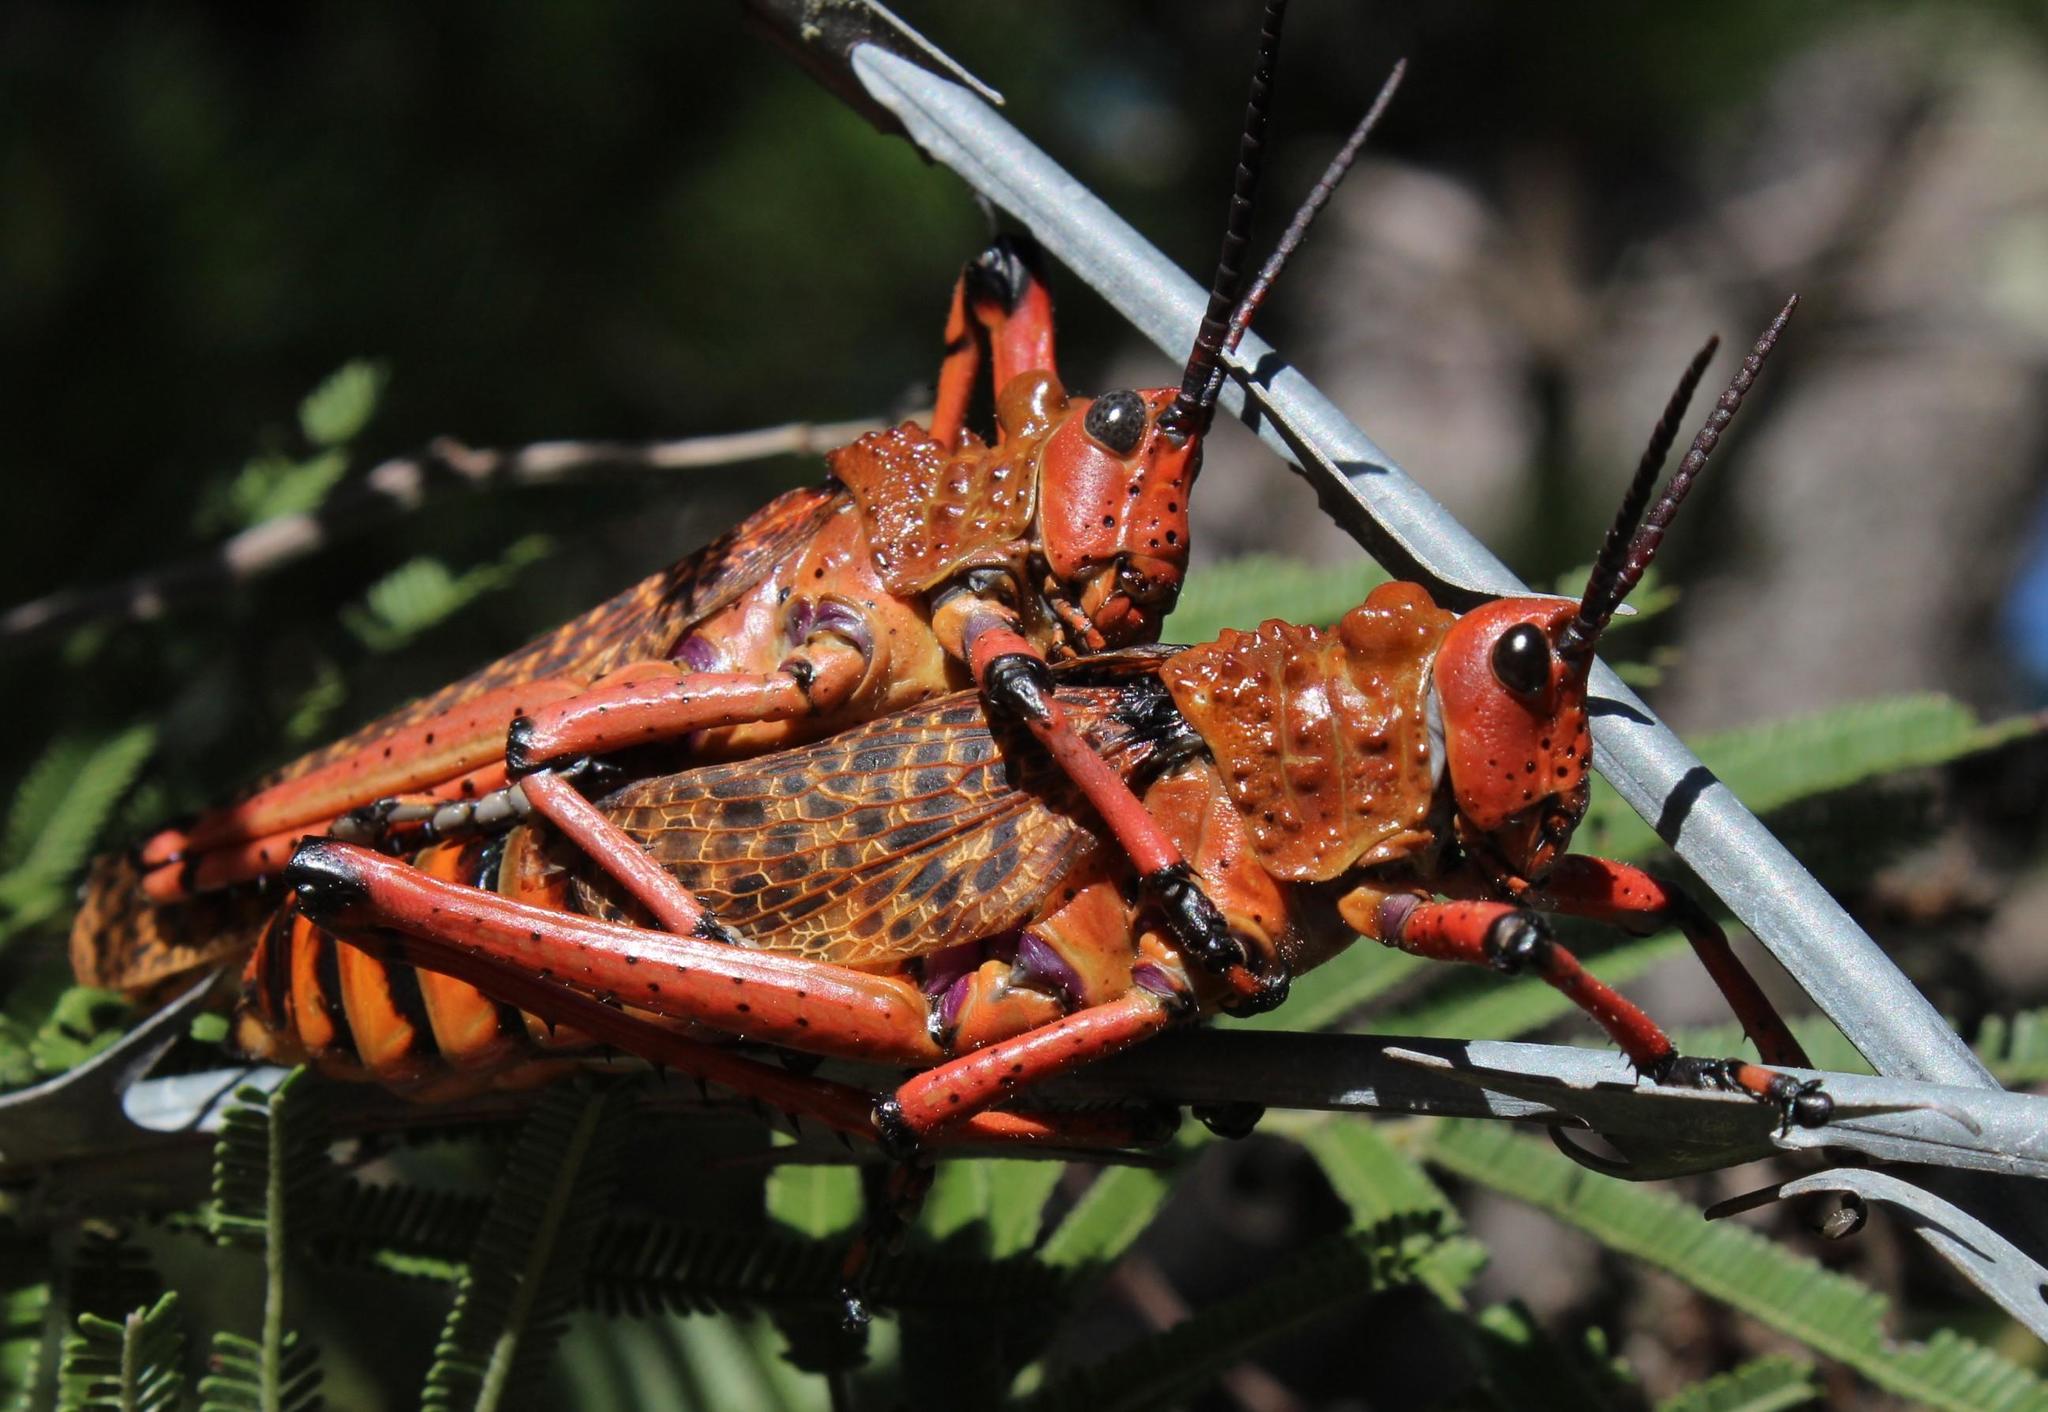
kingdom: Animalia
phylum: Arthropoda
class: Insecta
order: Orthoptera
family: Pyrgomorphidae
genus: Phymateus
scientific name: Phymateus leprosus
